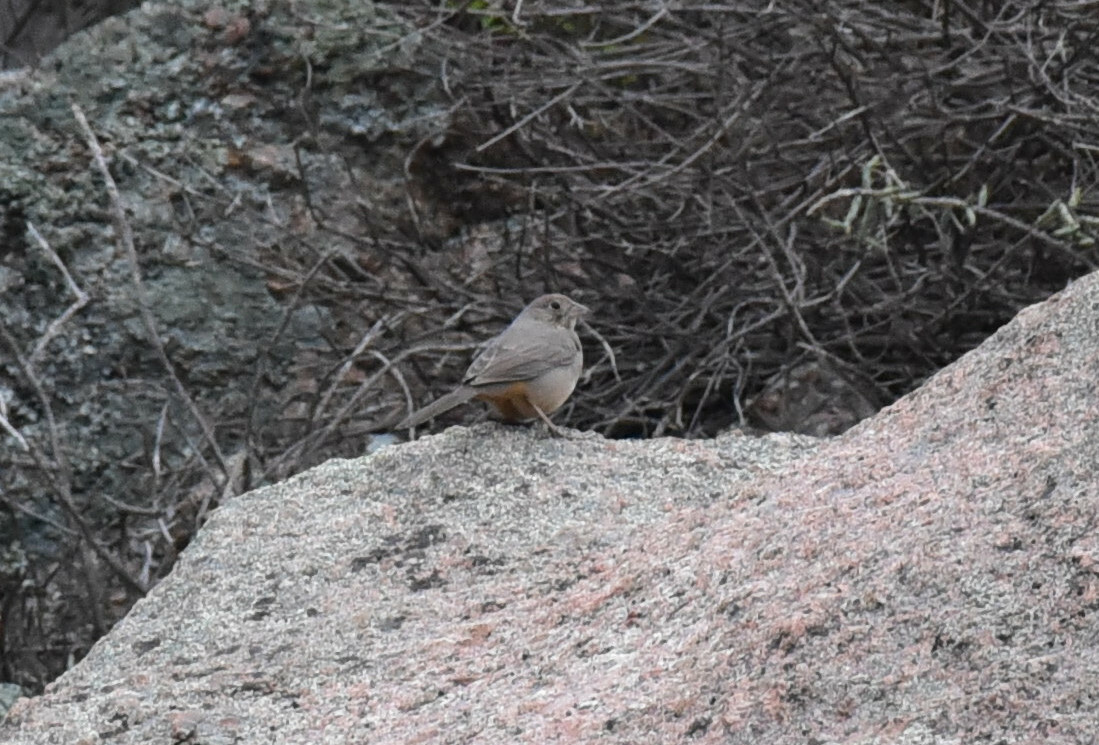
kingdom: Animalia
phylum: Chordata
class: Aves
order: Passeriformes
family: Passerellidae
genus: Melozone
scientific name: Melozone fusca
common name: Canyon towhee
